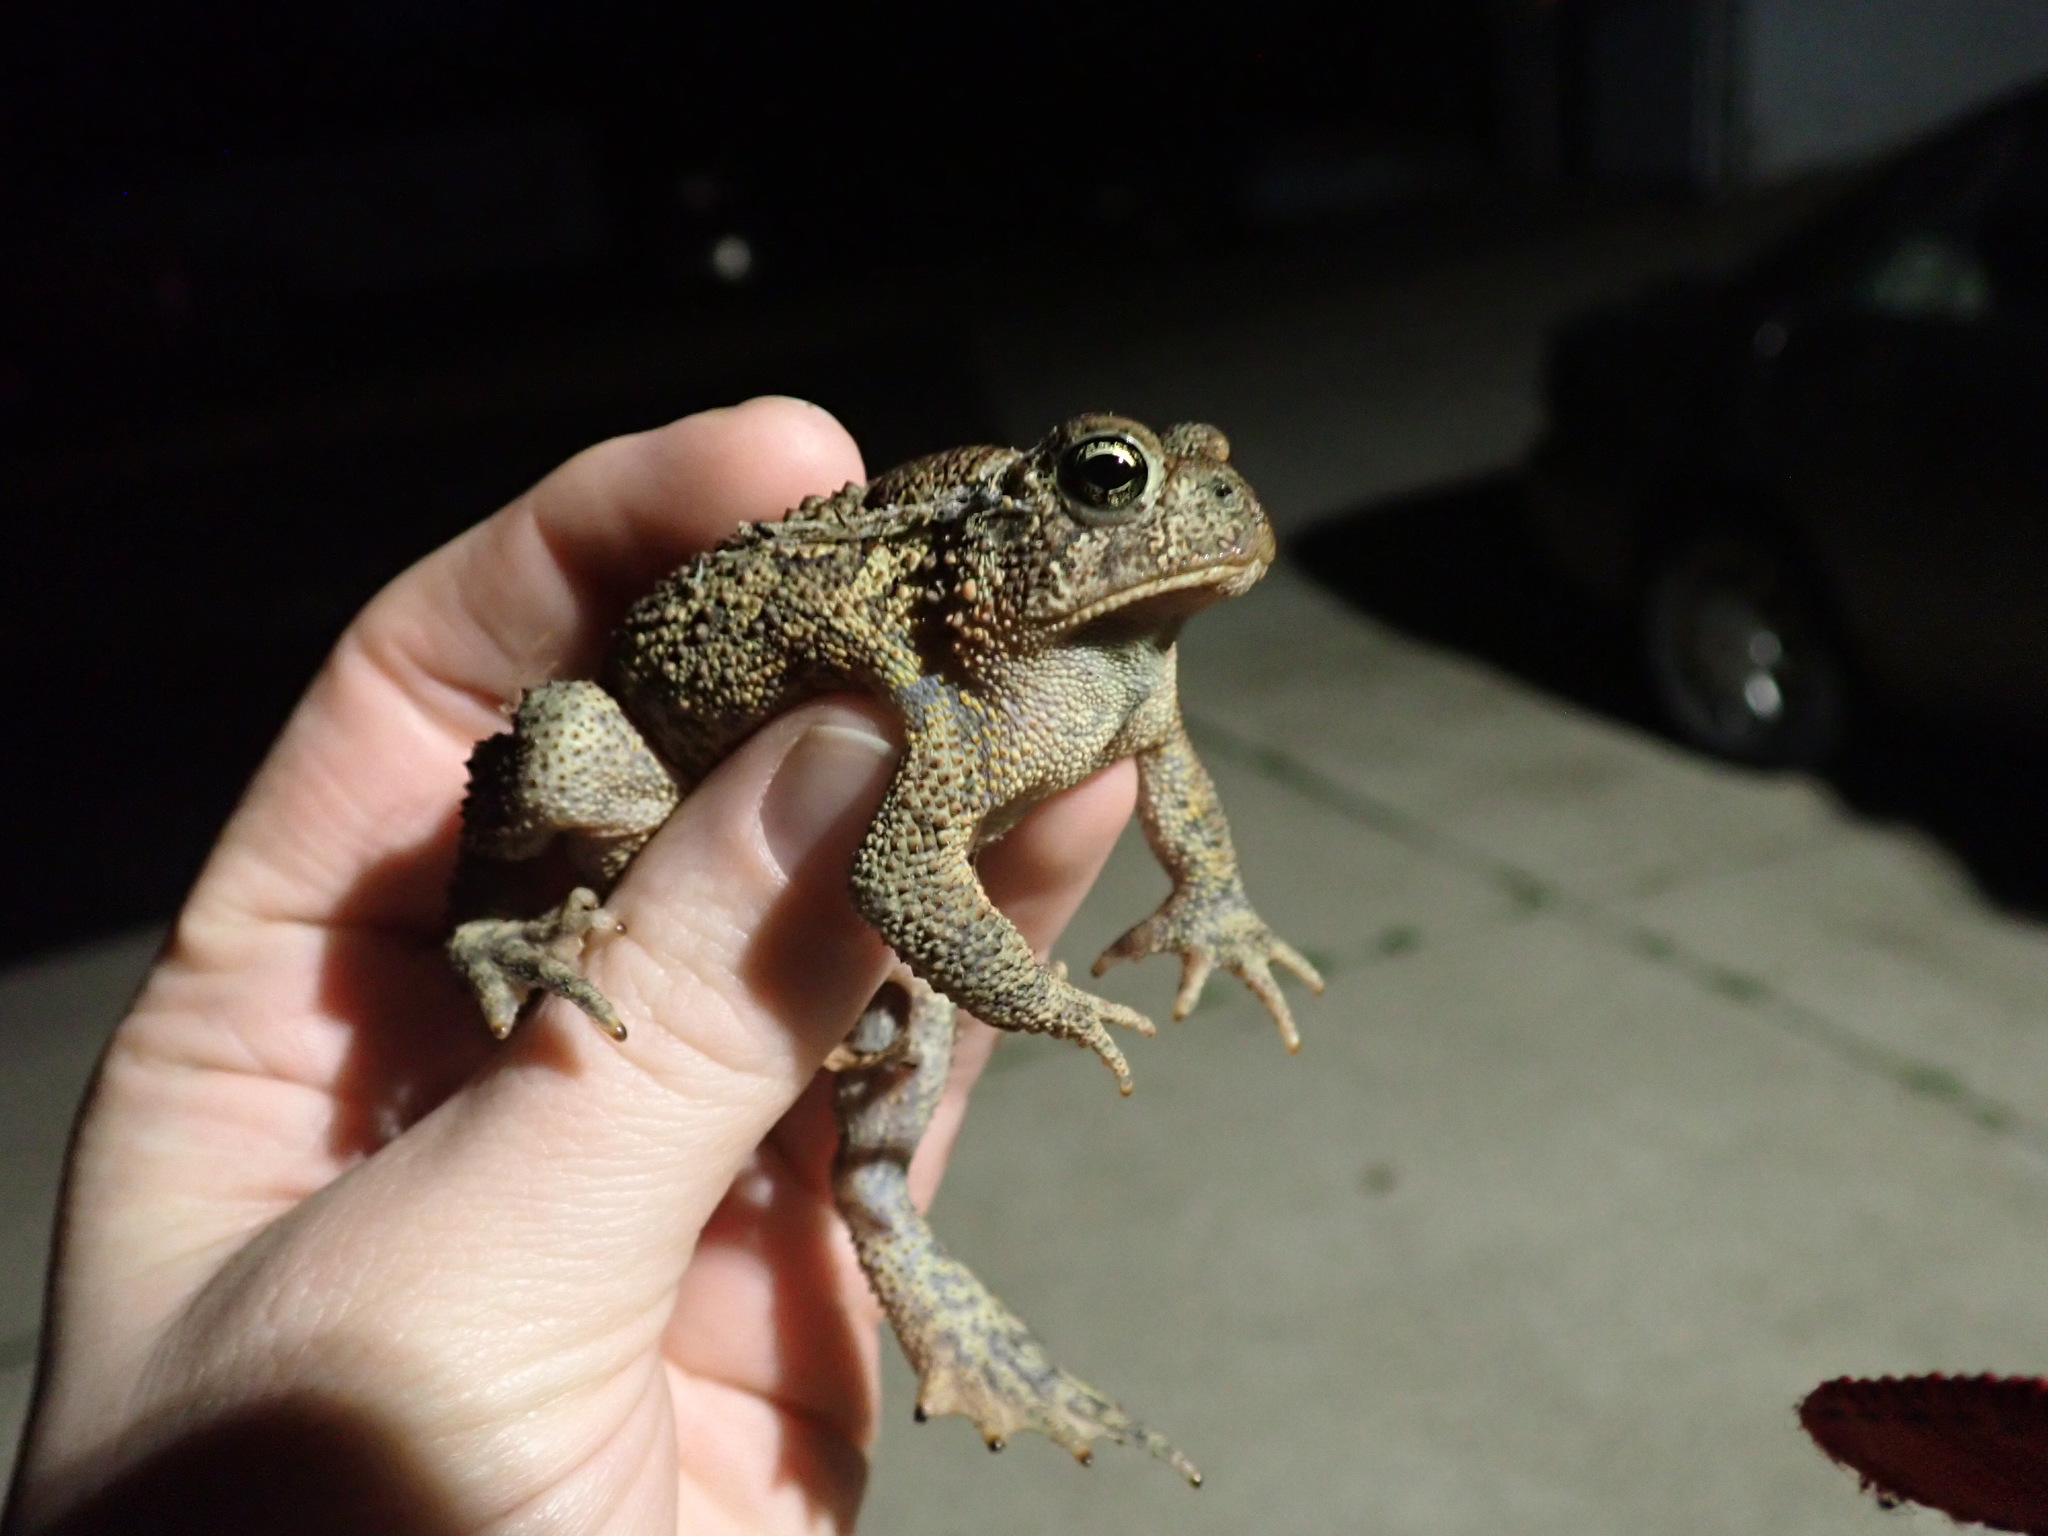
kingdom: Animalia
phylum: Chordata
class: Amphibia
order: Anura
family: Bufonidae
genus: Anaxyrus
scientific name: Anaxyrus americanus
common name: American toad
